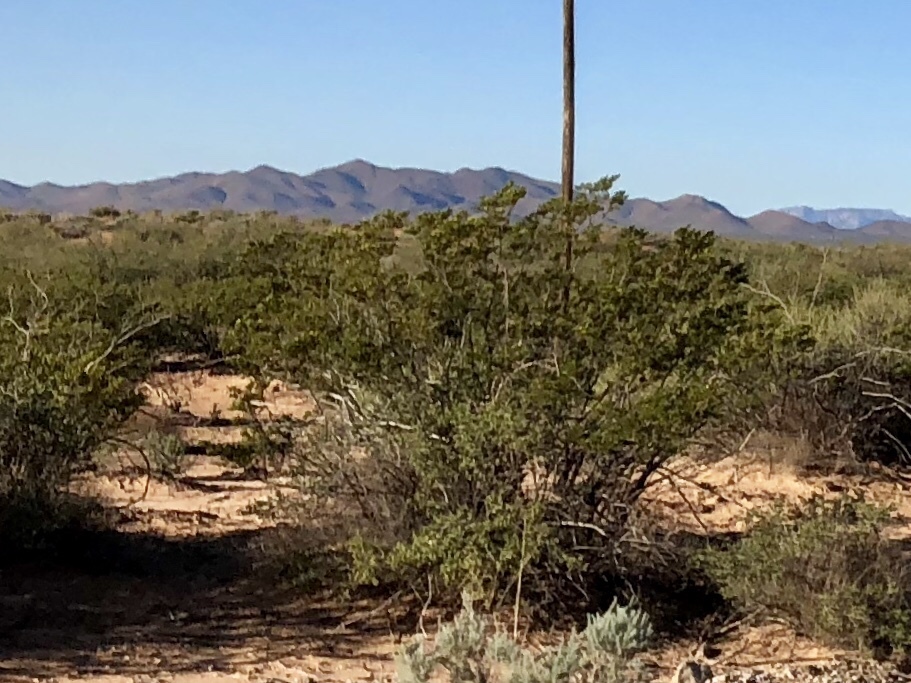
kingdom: Plantae
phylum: Tracheophyta
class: Magnoliopsida
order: Zygophyllales
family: Zygophyllaceae
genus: Larrea
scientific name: Larrea tridentata
